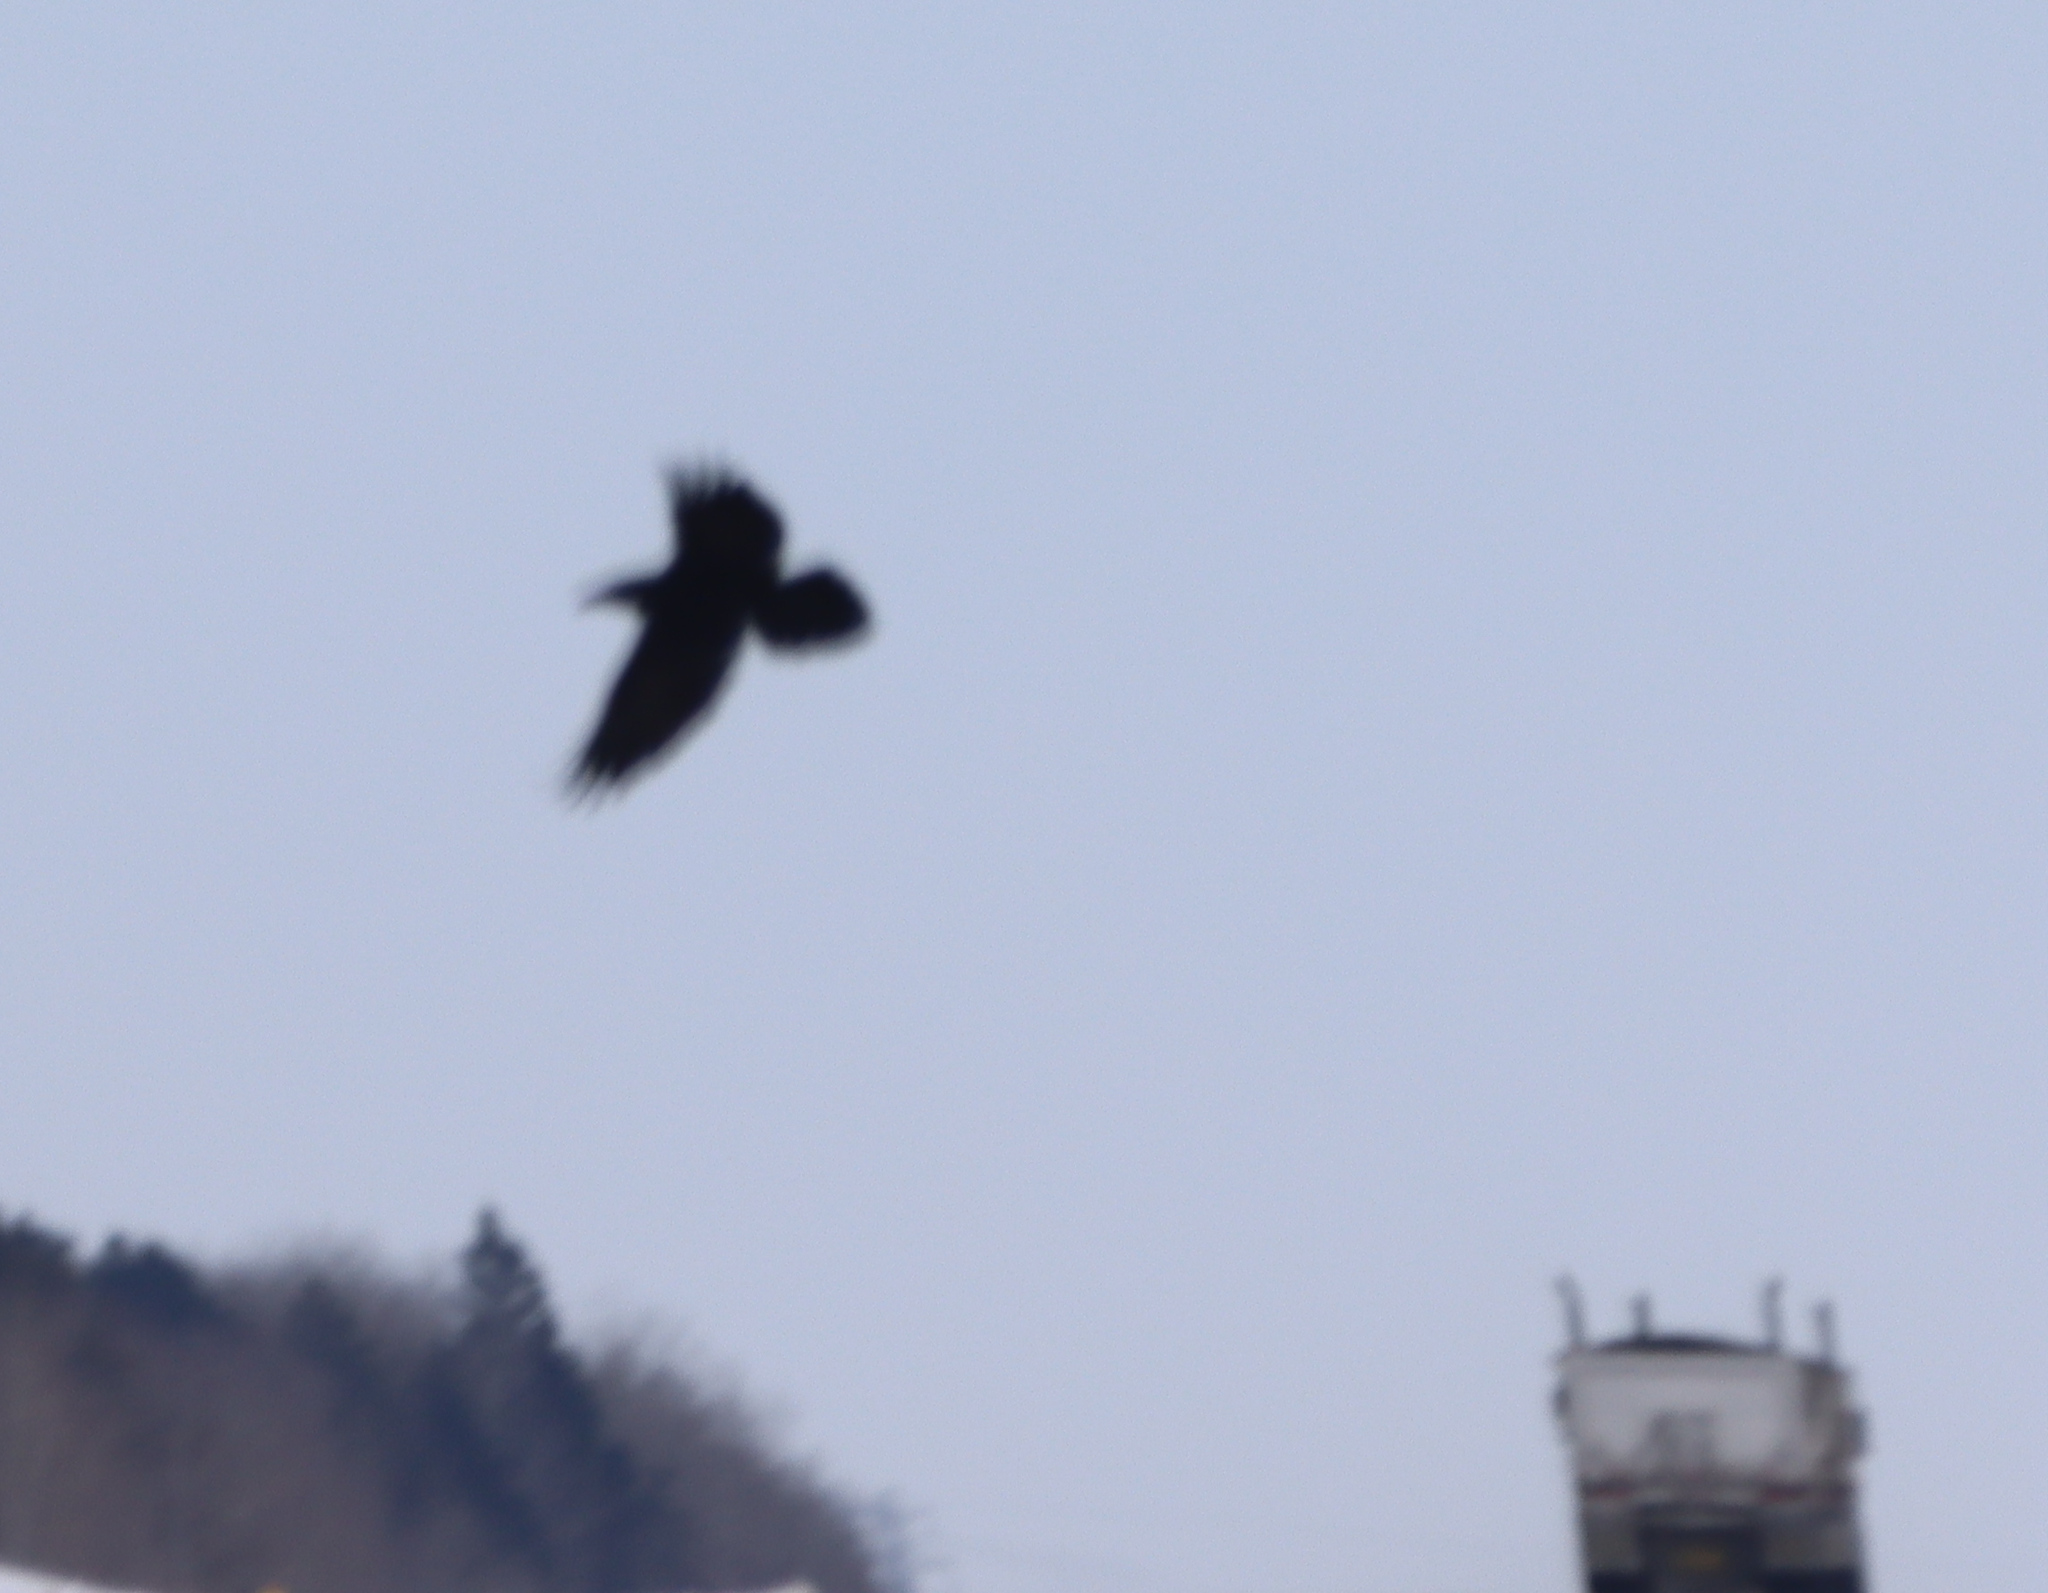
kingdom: Animalia
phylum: Chordata
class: Aves
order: Passeriformes
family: Corvidae
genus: Corvus
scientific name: Corvus corax
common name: Common raven
